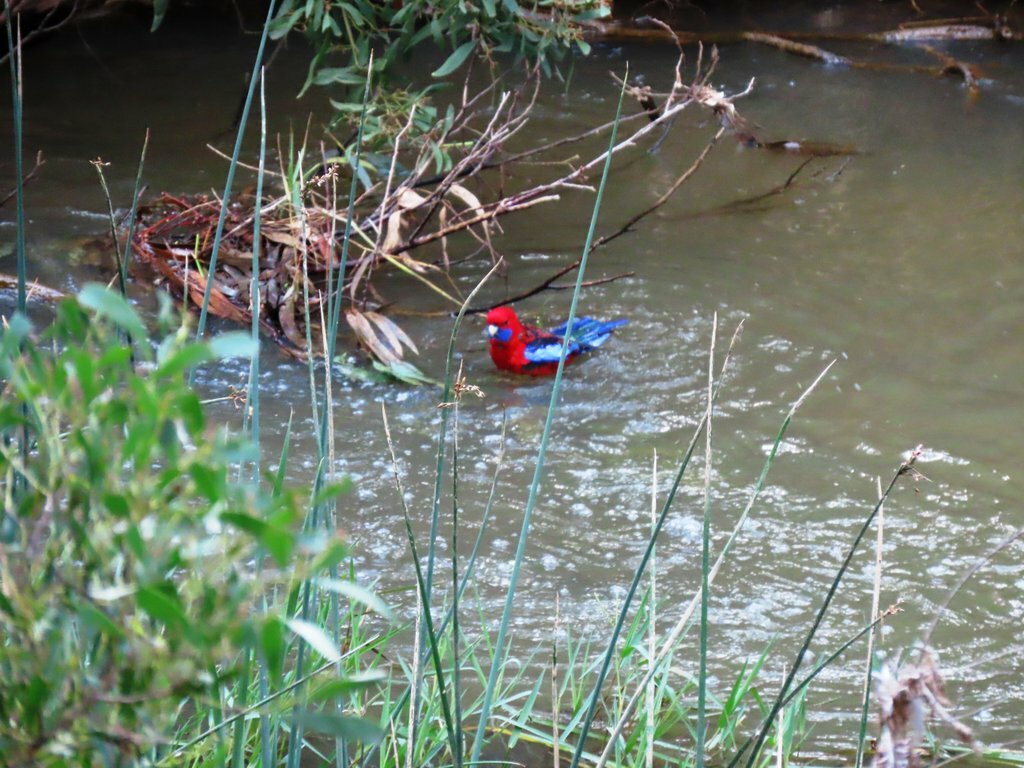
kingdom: Animalia
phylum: Chordata
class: Aves
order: Psittaciformes
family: Psittacidae
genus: Platycercus
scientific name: Platycercus elegans
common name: Crimson rosella
